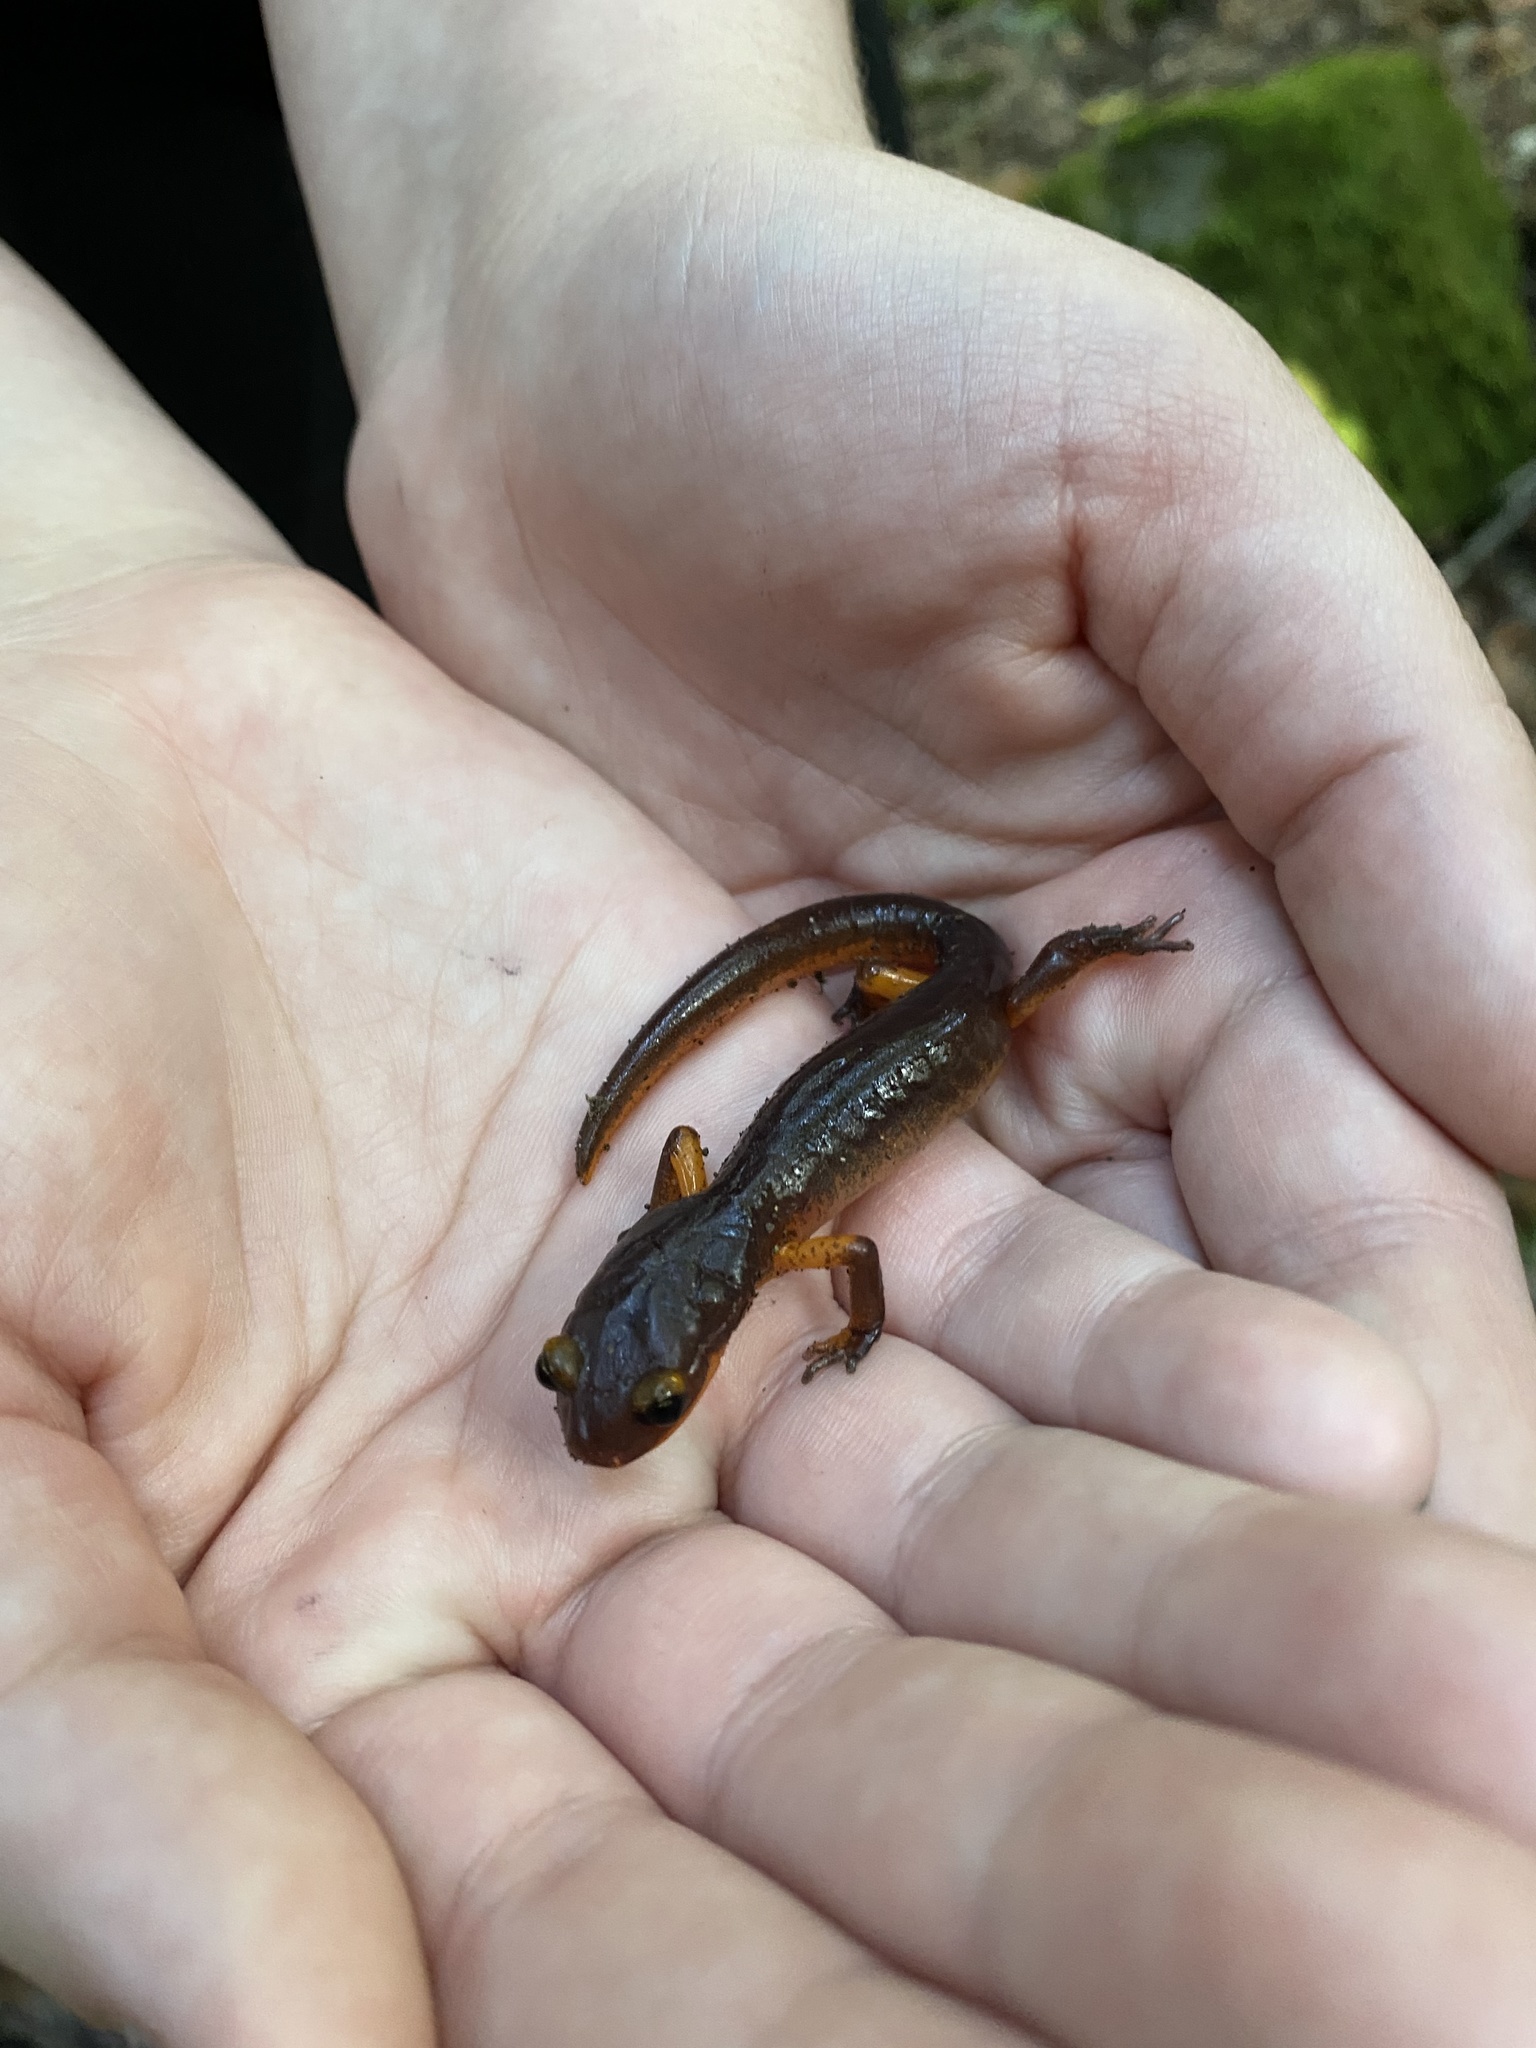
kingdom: Animalia
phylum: Chordata
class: Amphibia
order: Caudata
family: Plethodontidae
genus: Ensatina
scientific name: Ensatina eschscholtzii
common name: Ensatina
